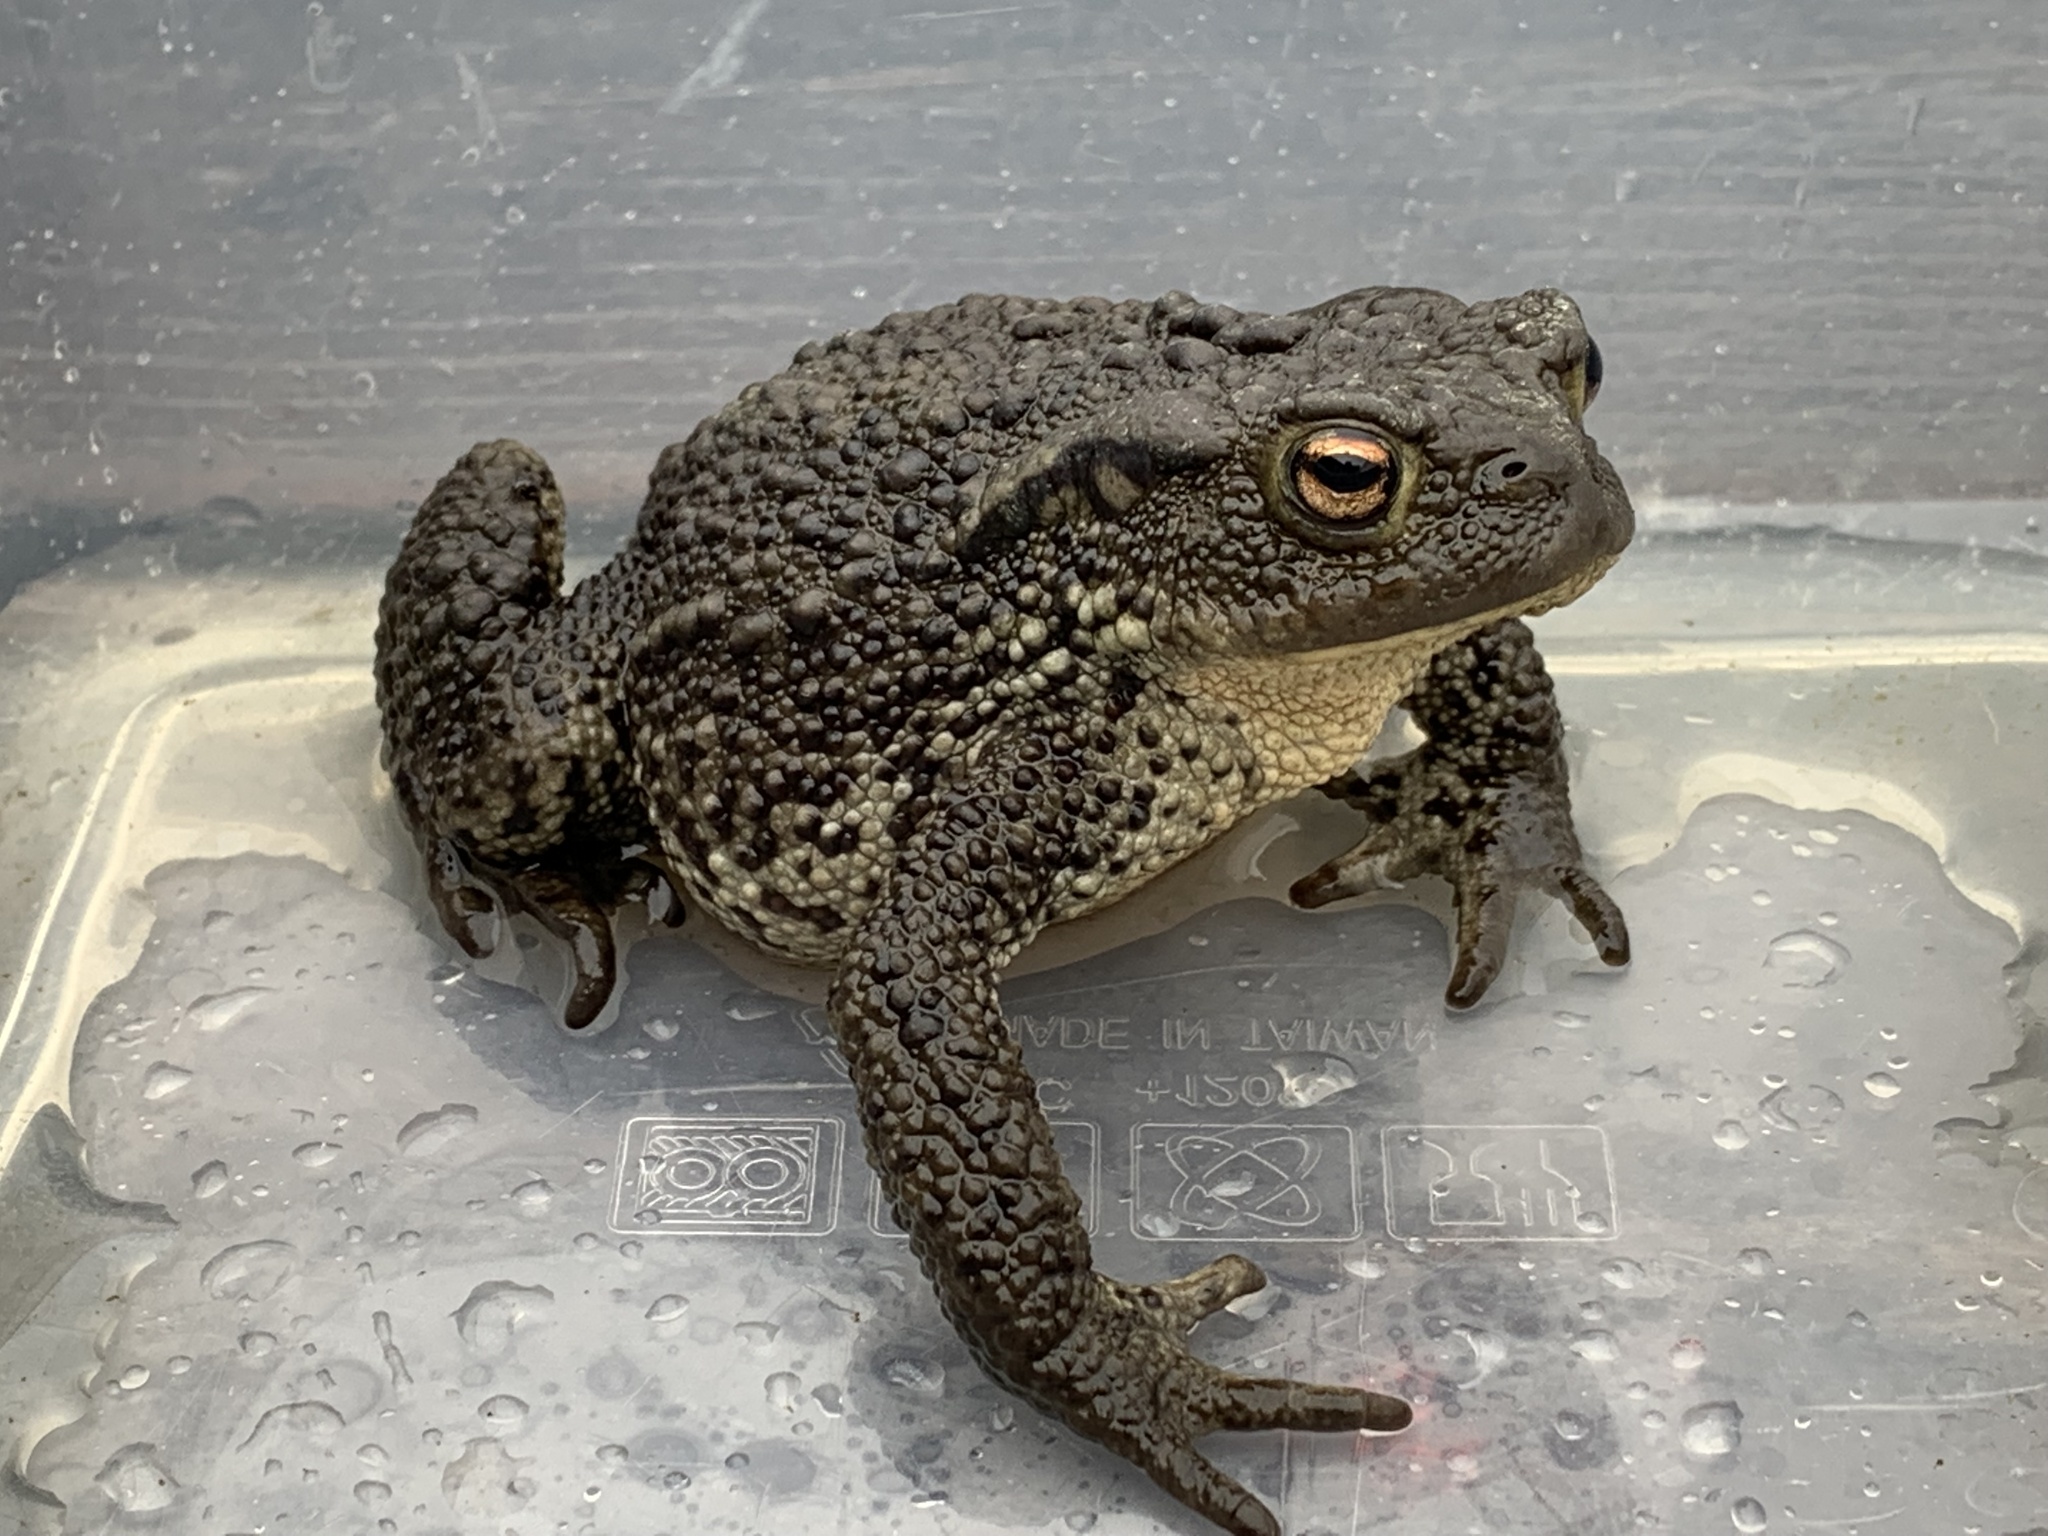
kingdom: Animalia
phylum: Chordata
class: Amphibia
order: Anura
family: Bufonidae
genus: Bufo
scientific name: Bufo bufo
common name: Common toad
